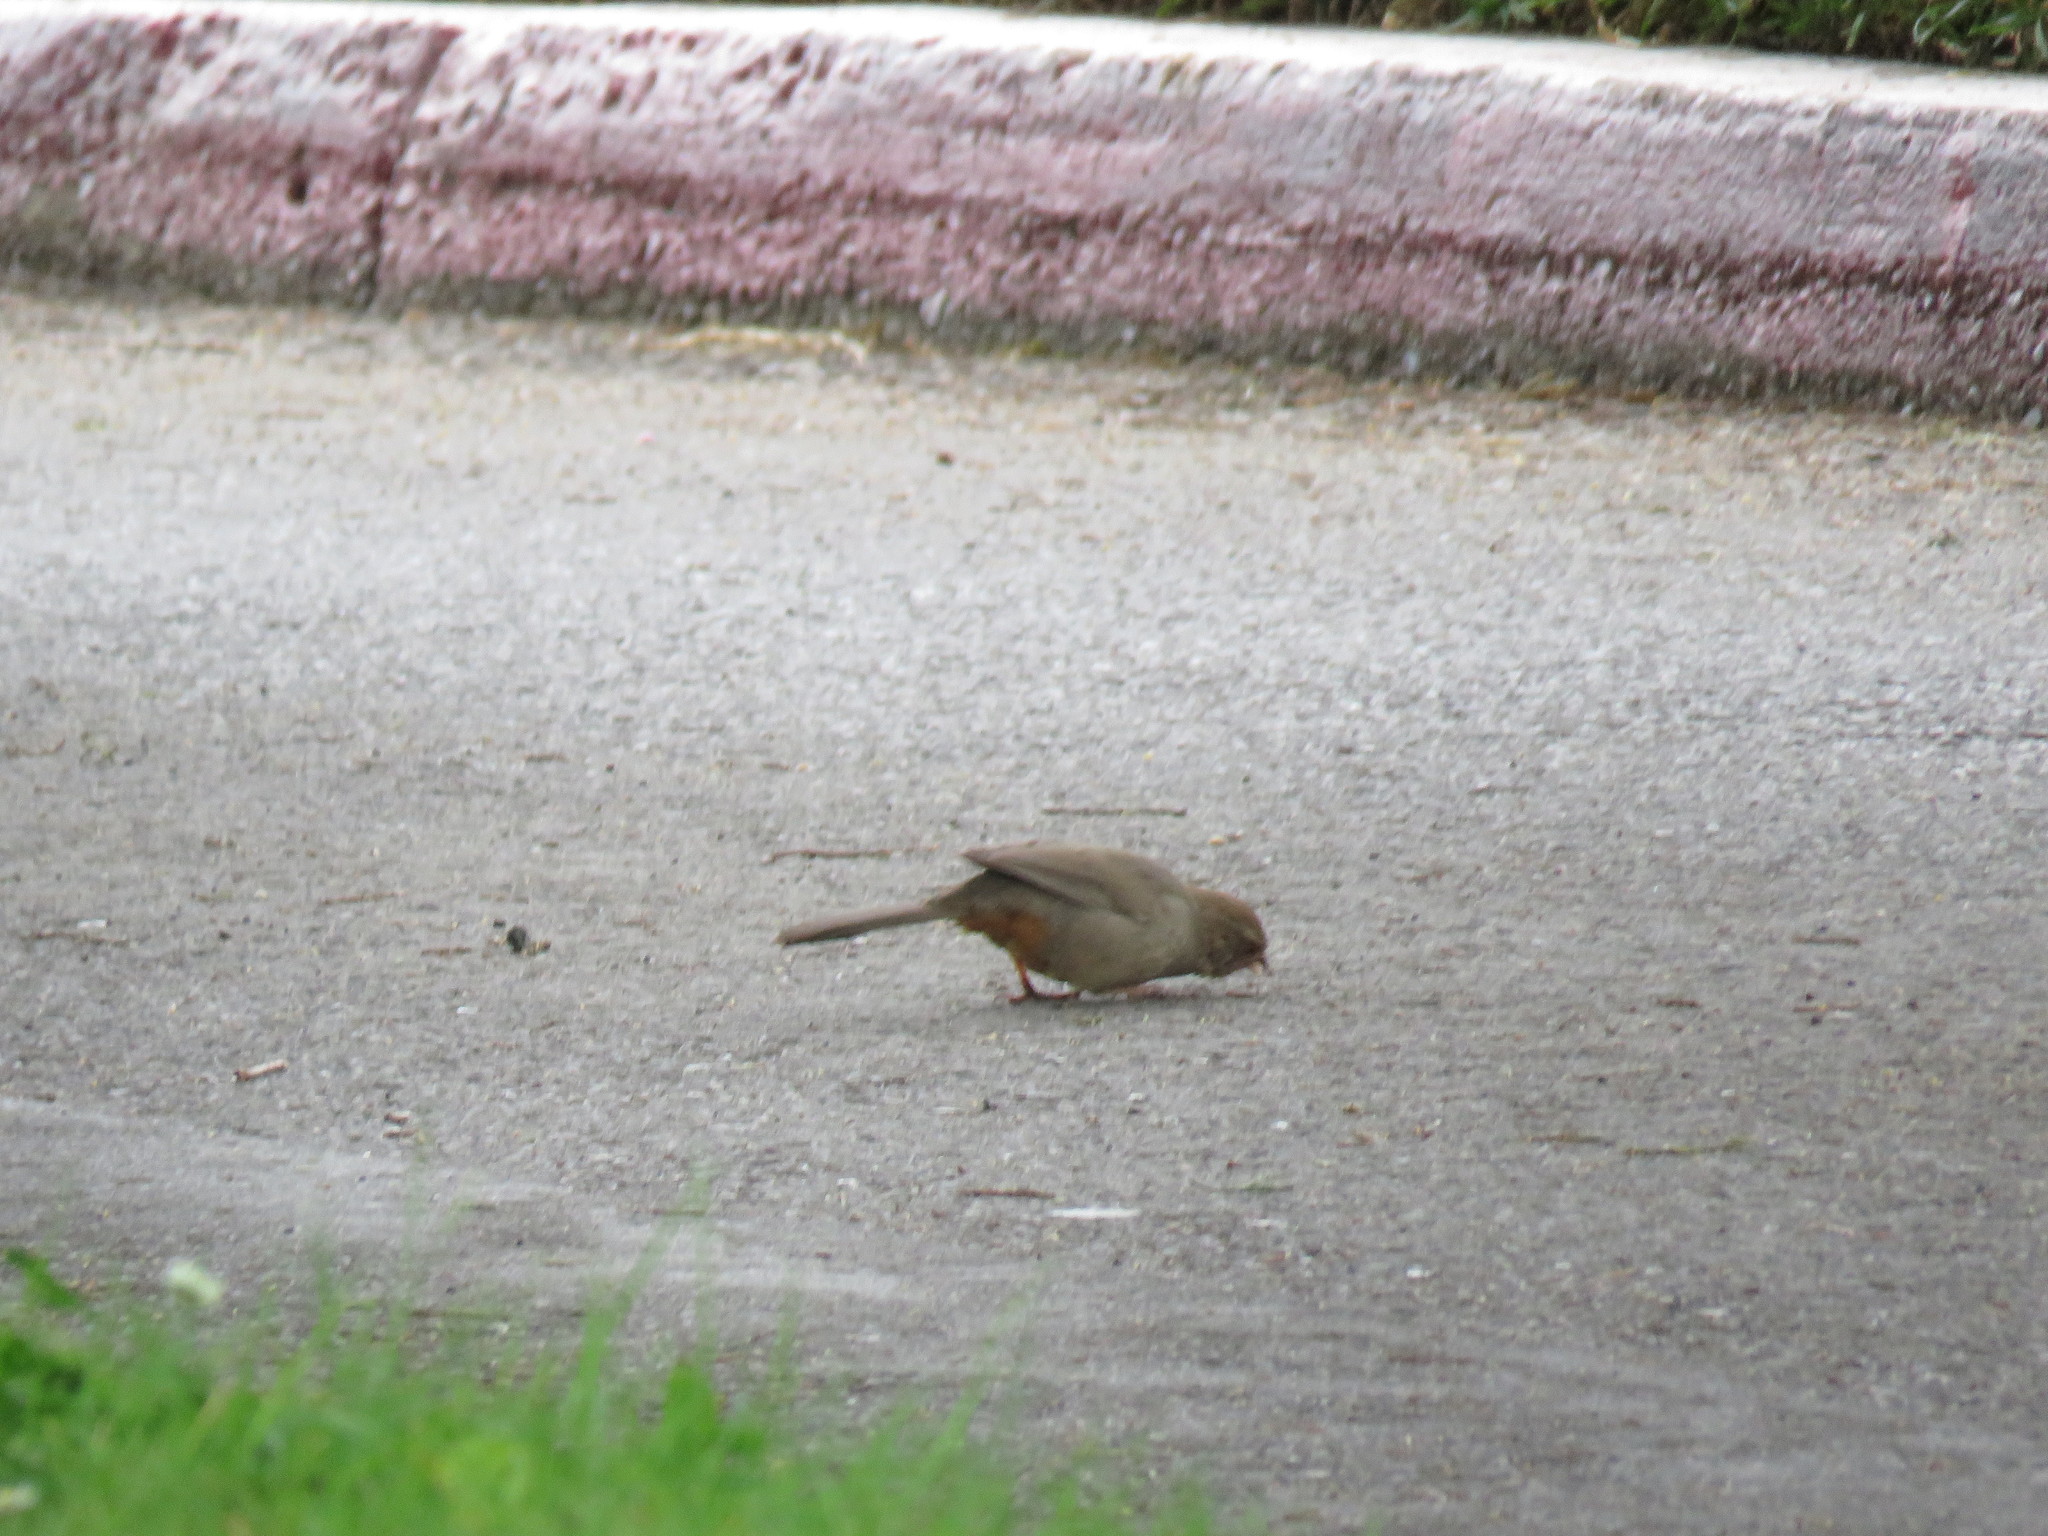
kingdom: Animalia
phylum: Chordata
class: Aves
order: Passeriformes
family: Passerellidae
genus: Melozone
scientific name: Melozone crissalis
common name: California towhee
